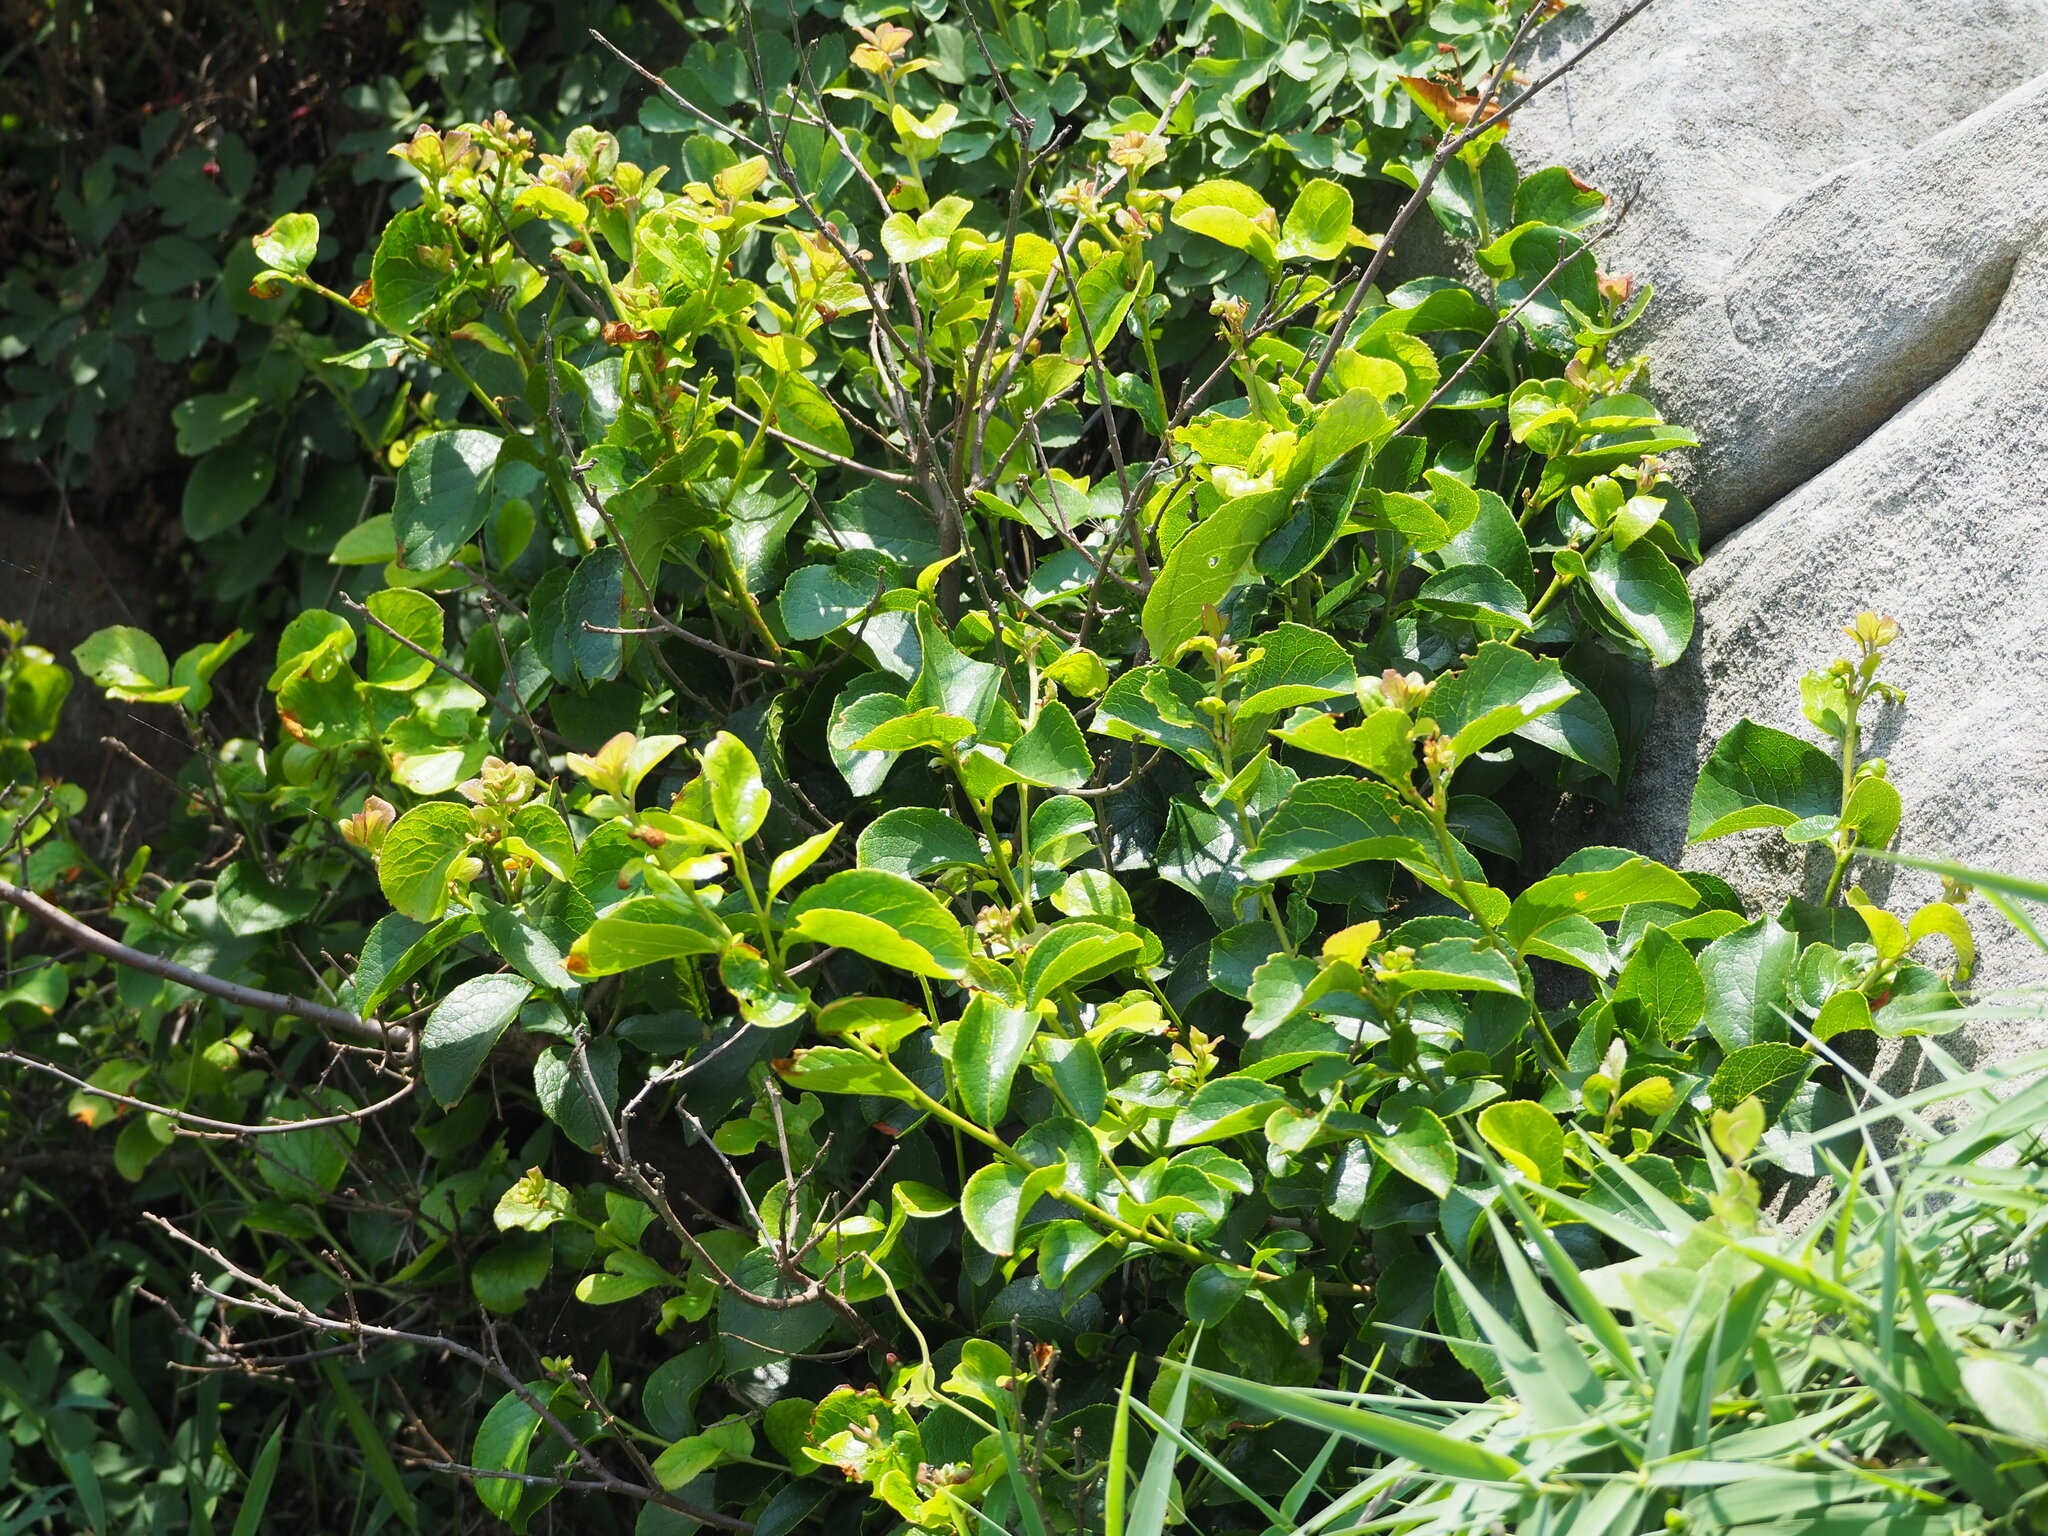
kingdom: Plantae
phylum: Tracheophyta
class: Magnoliopsida
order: Ericales
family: Symplocaceae
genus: Symplocos
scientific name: Symplocos paniculata
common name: Sapphire-berry
